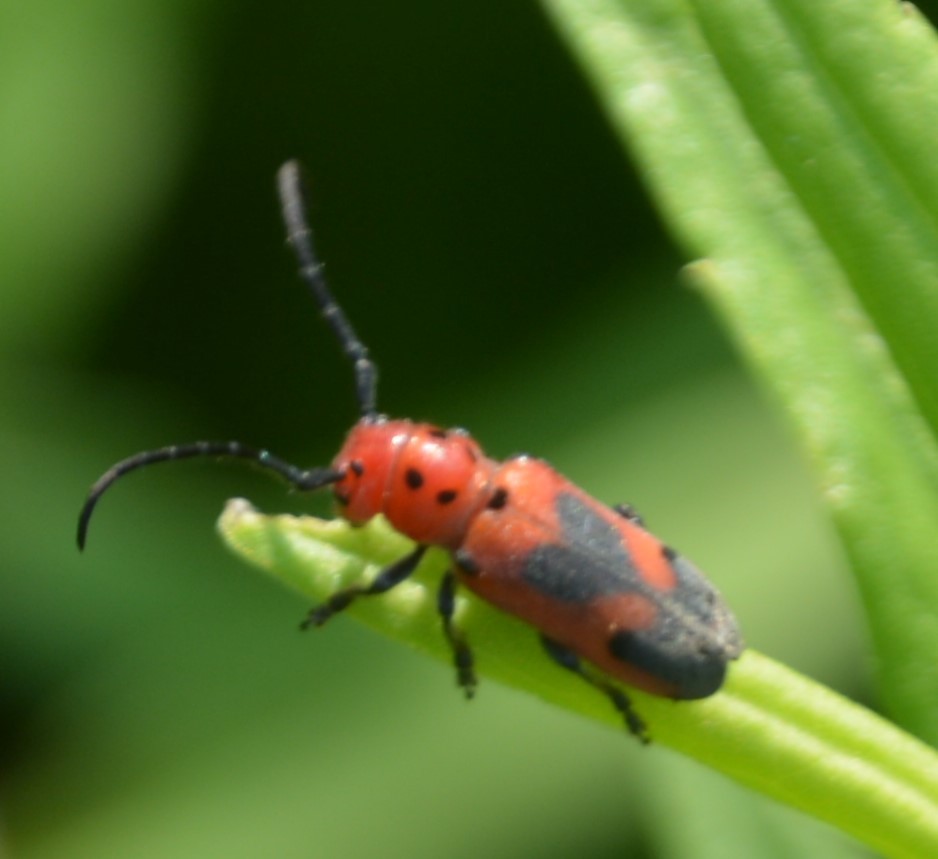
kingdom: Animalia
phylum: Arthropoda
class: Insecta
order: Coleoptera
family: Cerambycidae
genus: Tetraopes
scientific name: Tetraopes melanurus
